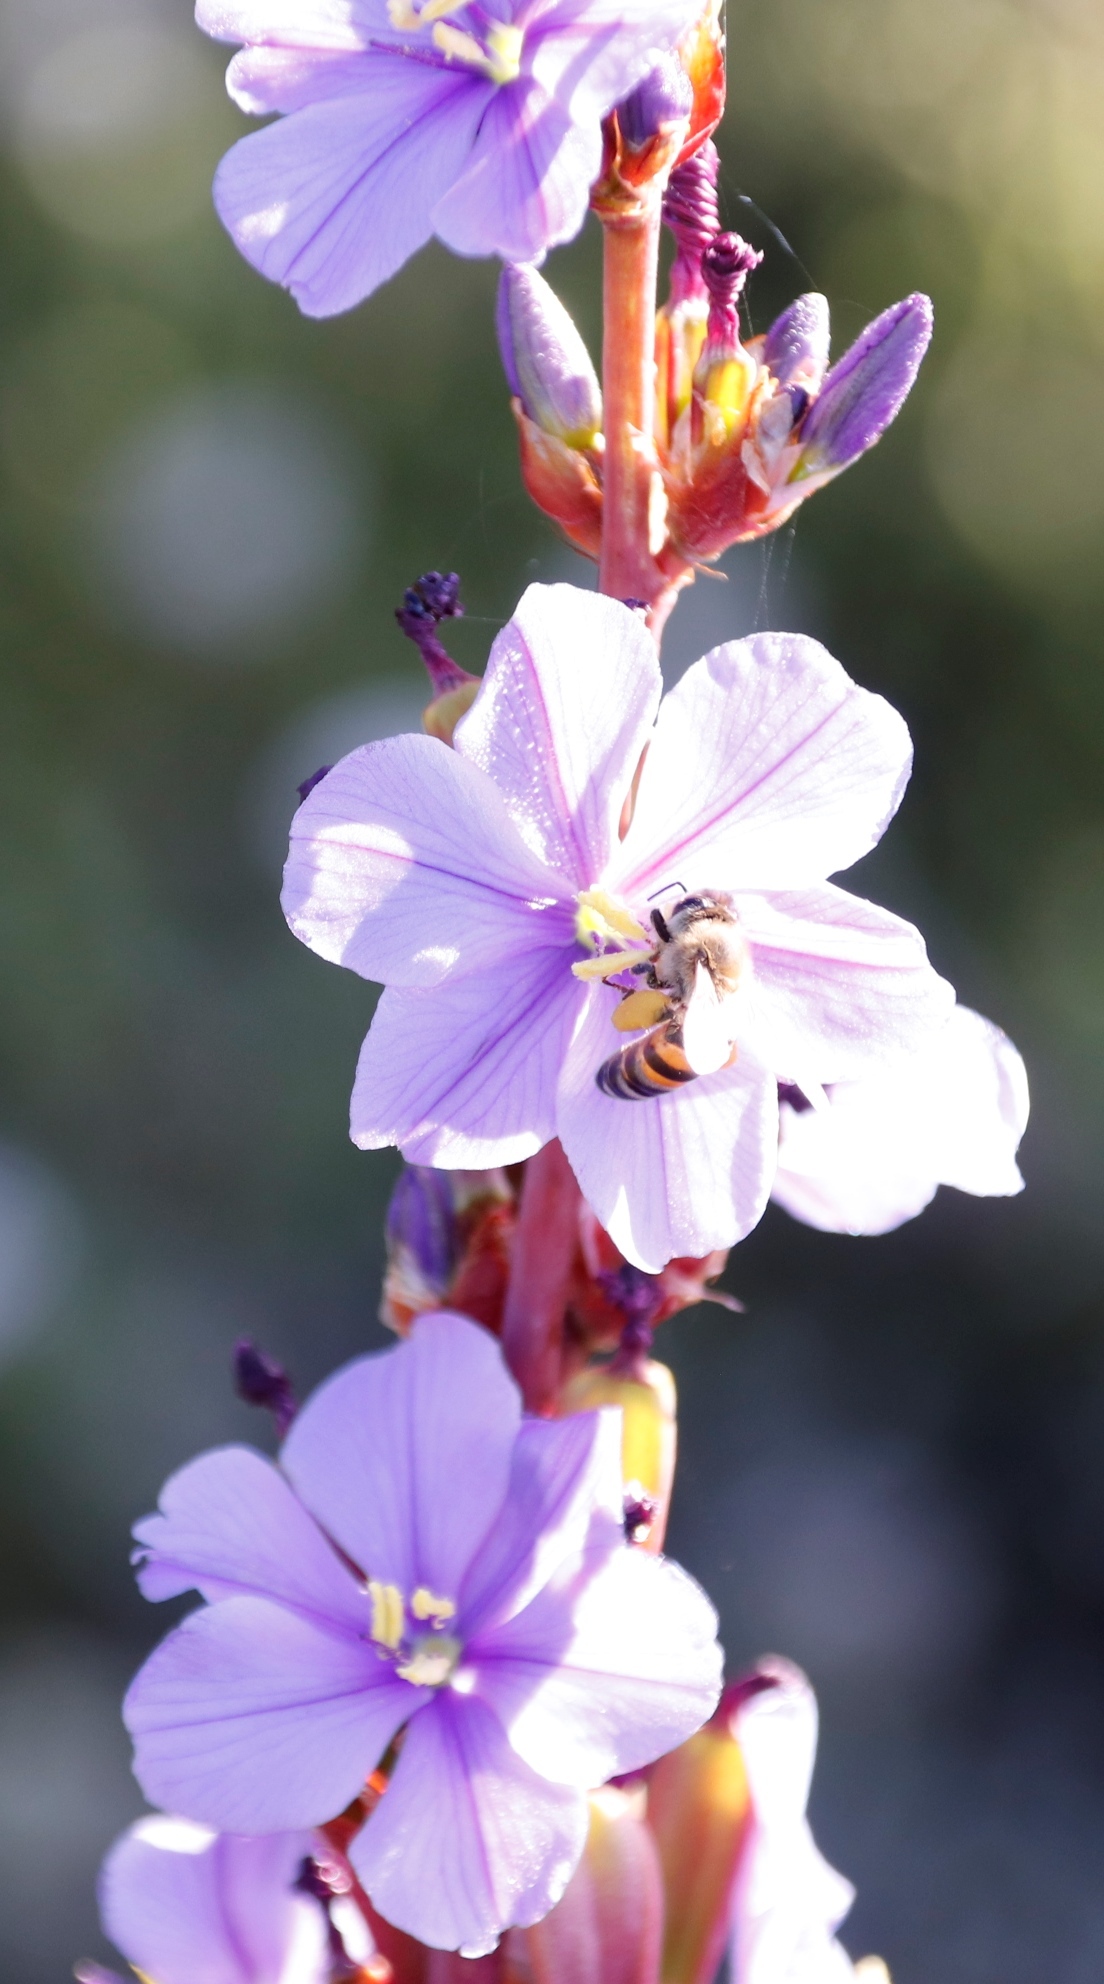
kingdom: Animalia
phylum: Arthropoda
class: Insecta
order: Hymenoptera
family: Apidae
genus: Apis
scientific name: Apis mellifera
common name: Honey bee
